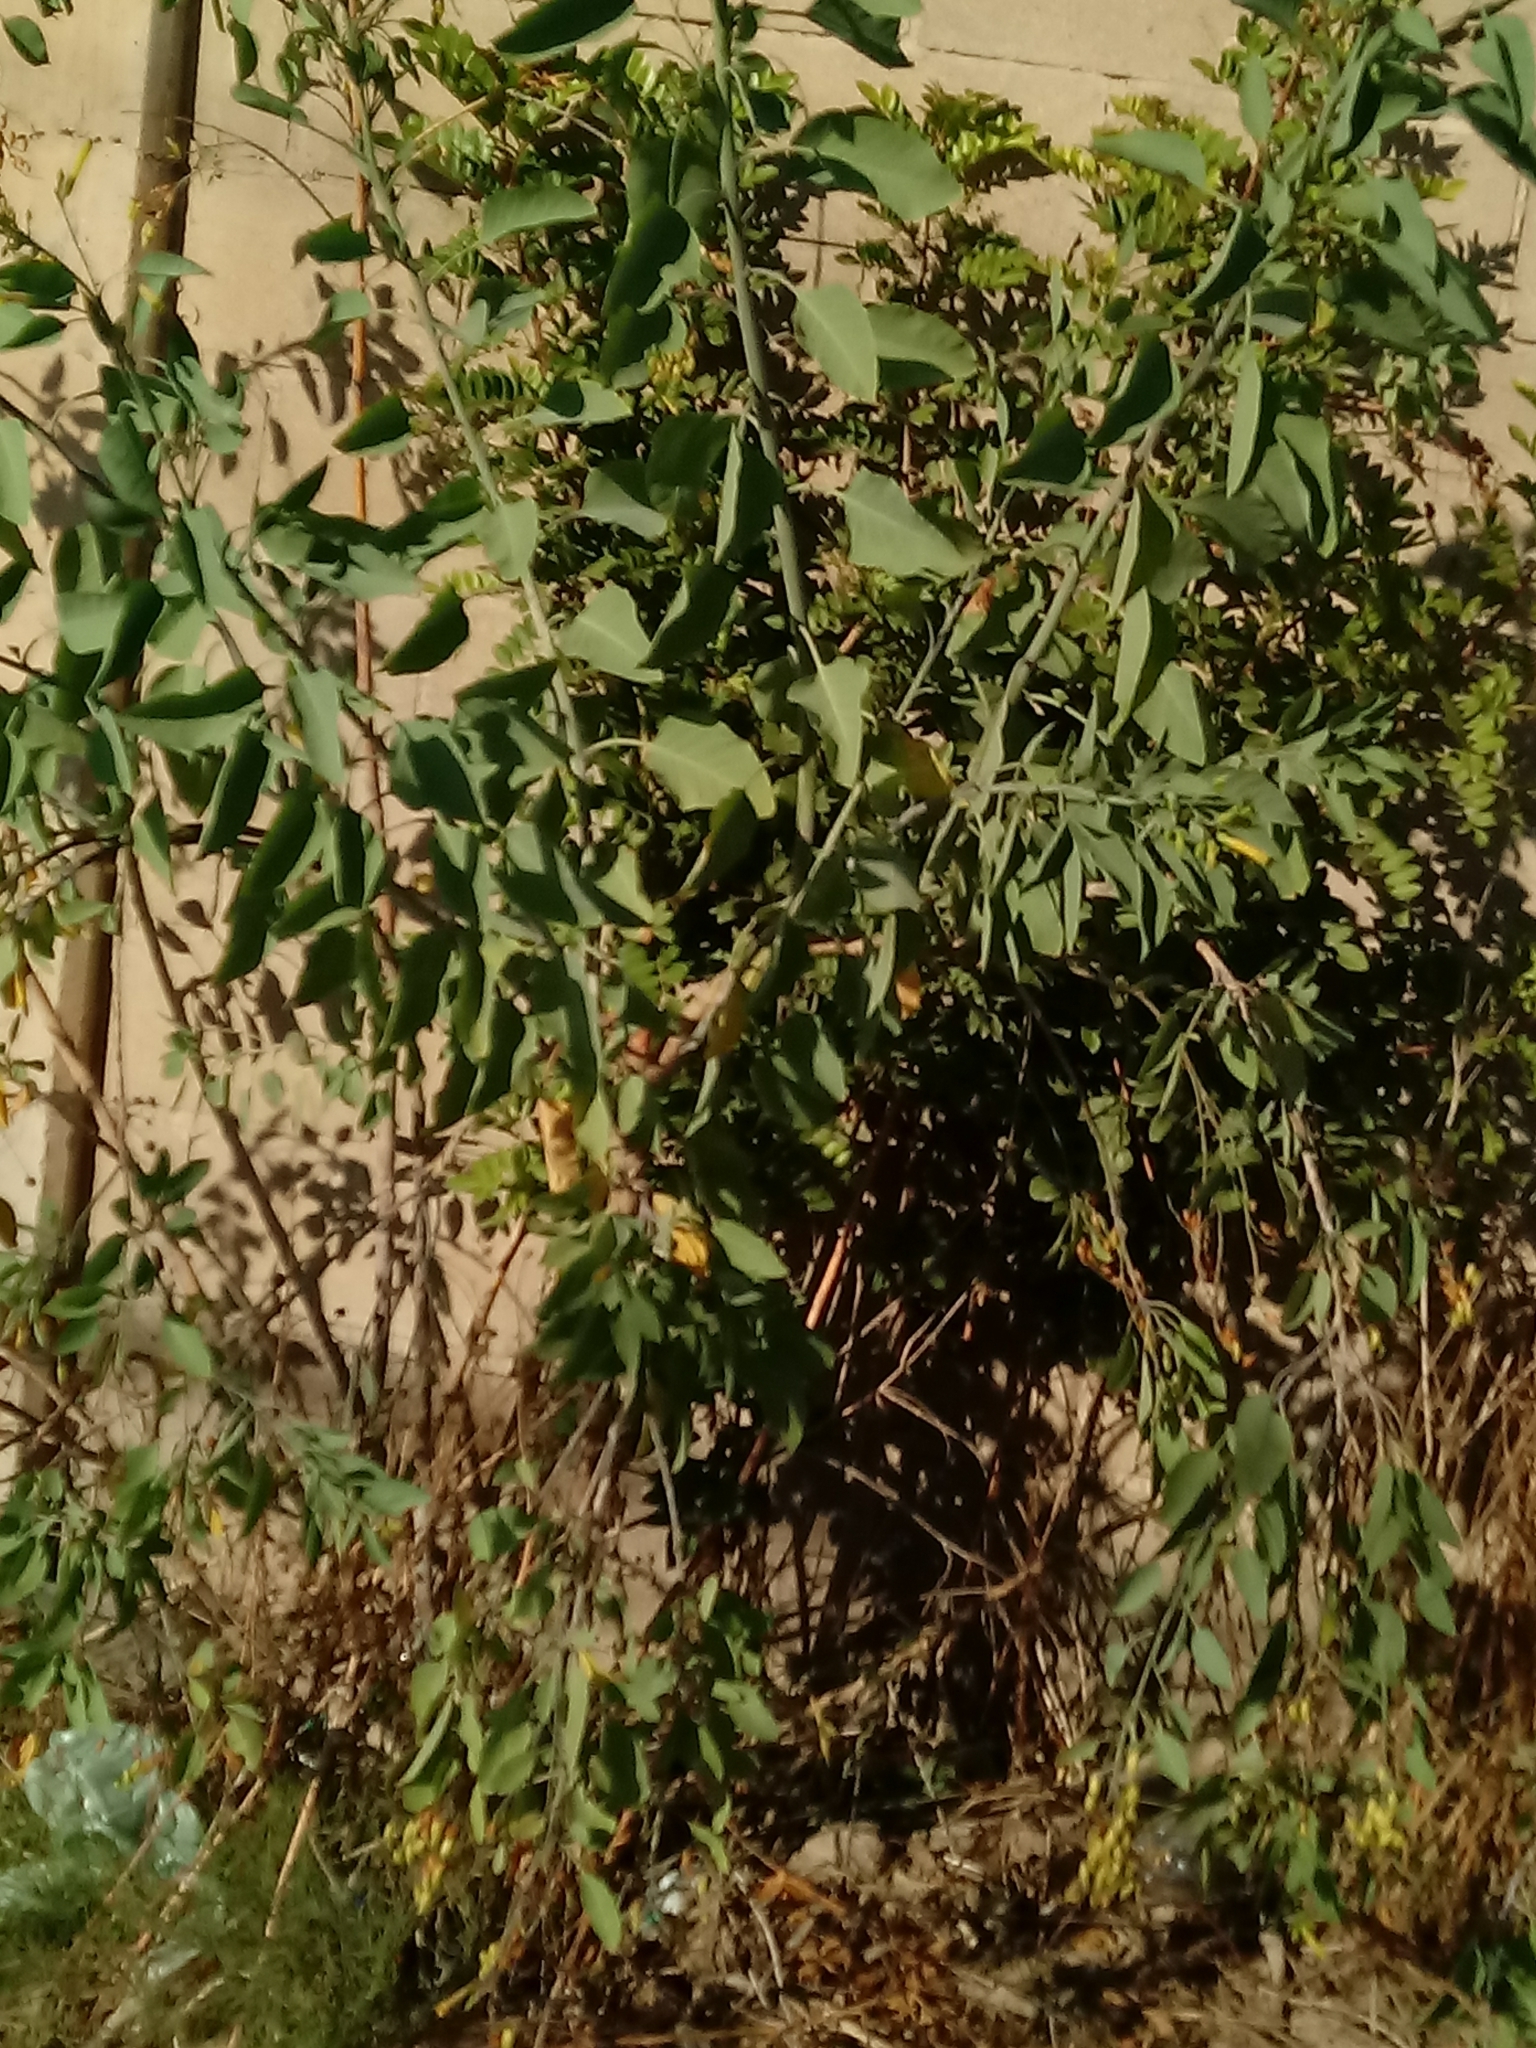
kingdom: Plantae
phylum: Tracheophyta
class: Magnoliopsida
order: Solanales
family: Solanaceae
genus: Nicotiana
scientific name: Nicotiana glauca
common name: Tree tobacco
